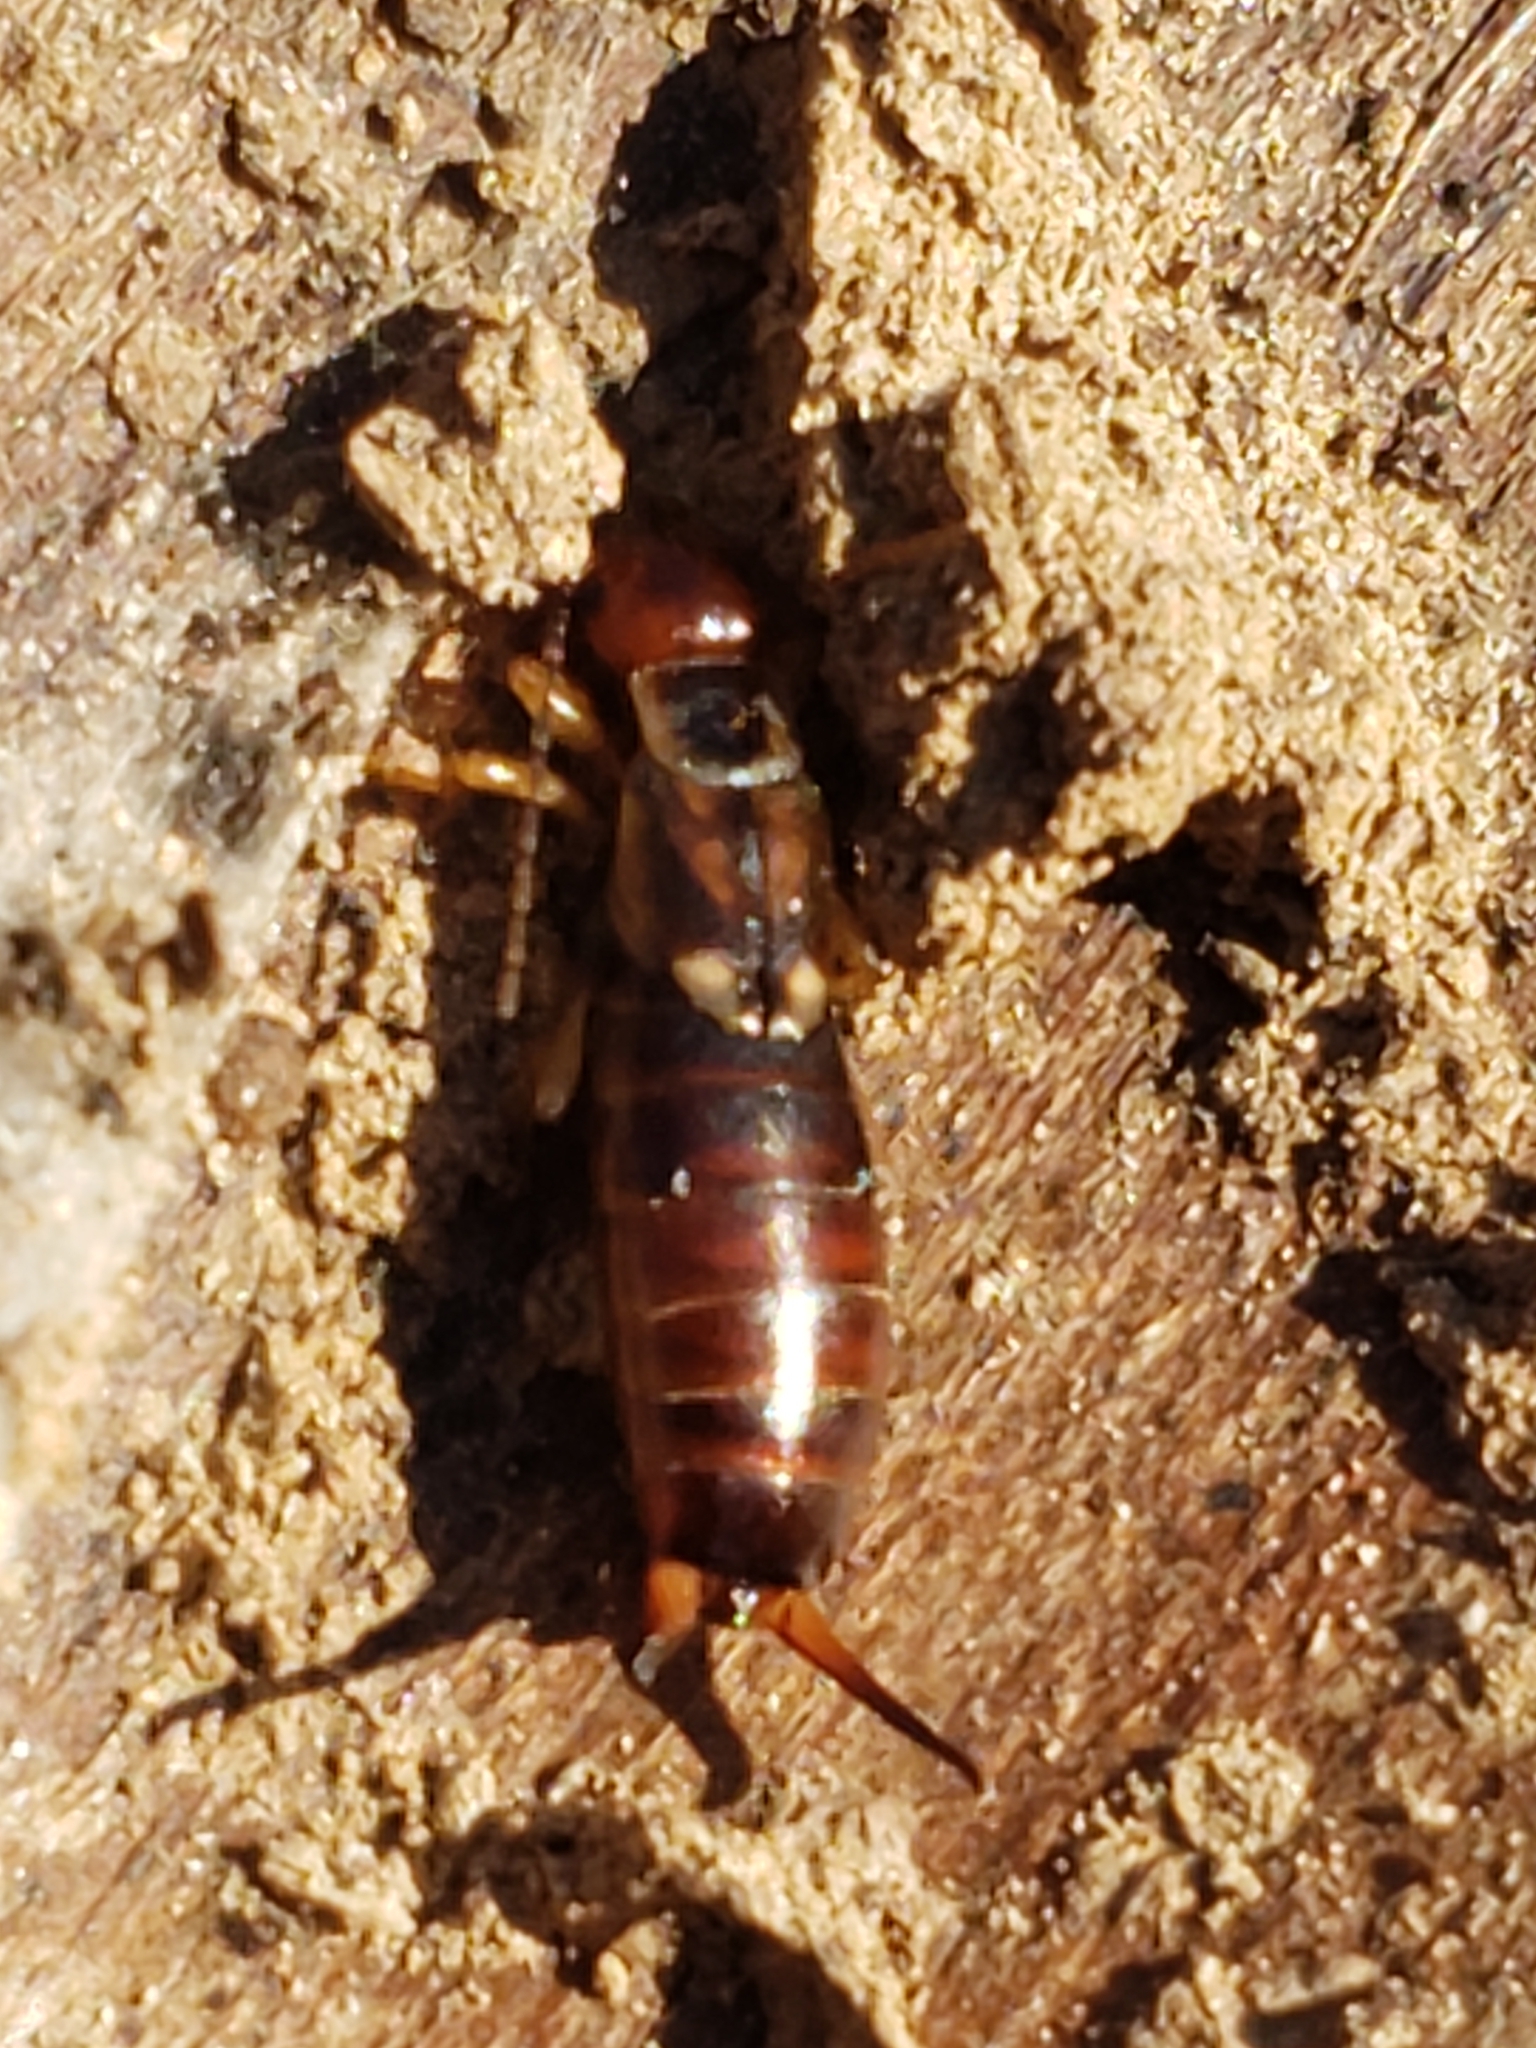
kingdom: Animalia
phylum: Arthropoda
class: Insecta
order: Dermaptera
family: Forficulidae
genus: Forficula
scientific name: Forficula
